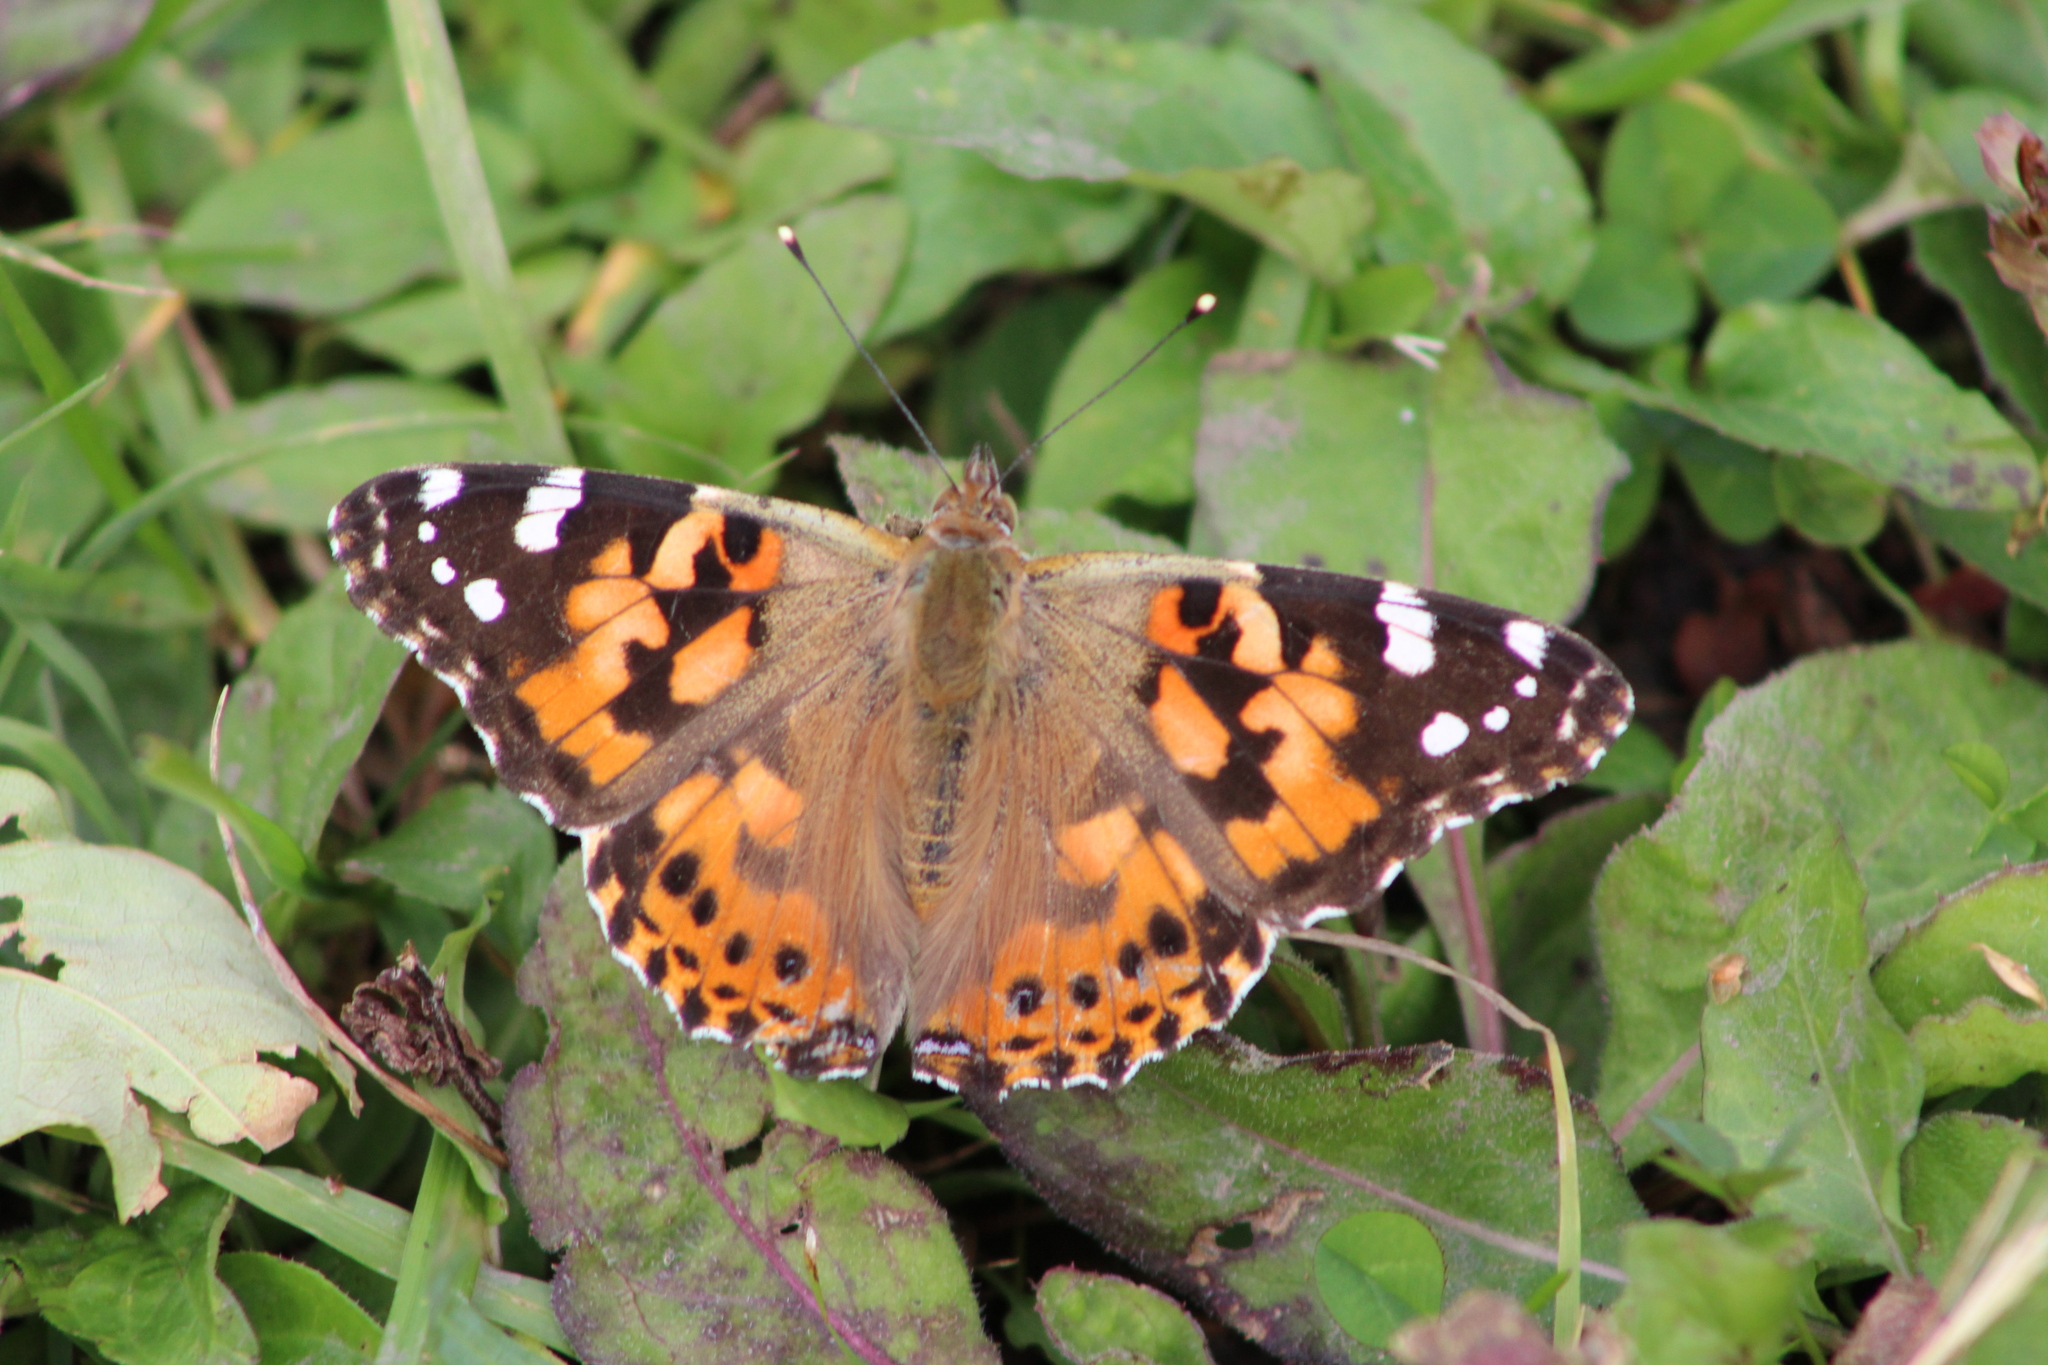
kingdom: Animalia
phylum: Arthropoda
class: Insecta
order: Lepidoptera
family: Nymphalidae
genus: Vanessa
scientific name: Vanessa cardui
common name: Painted lady
